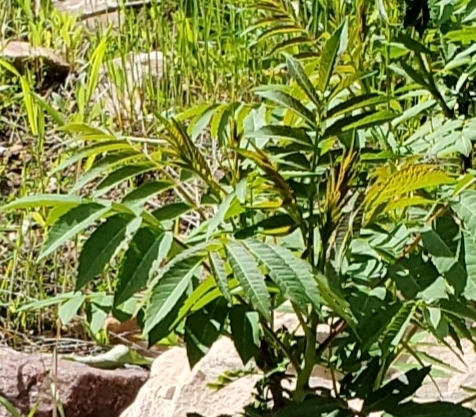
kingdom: Plantae
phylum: Tracheophyta
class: Magnoliopsida
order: Sapindales
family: Anacardiaceae
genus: Rhus
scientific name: Rhus glabra
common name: Scarlet sumac
